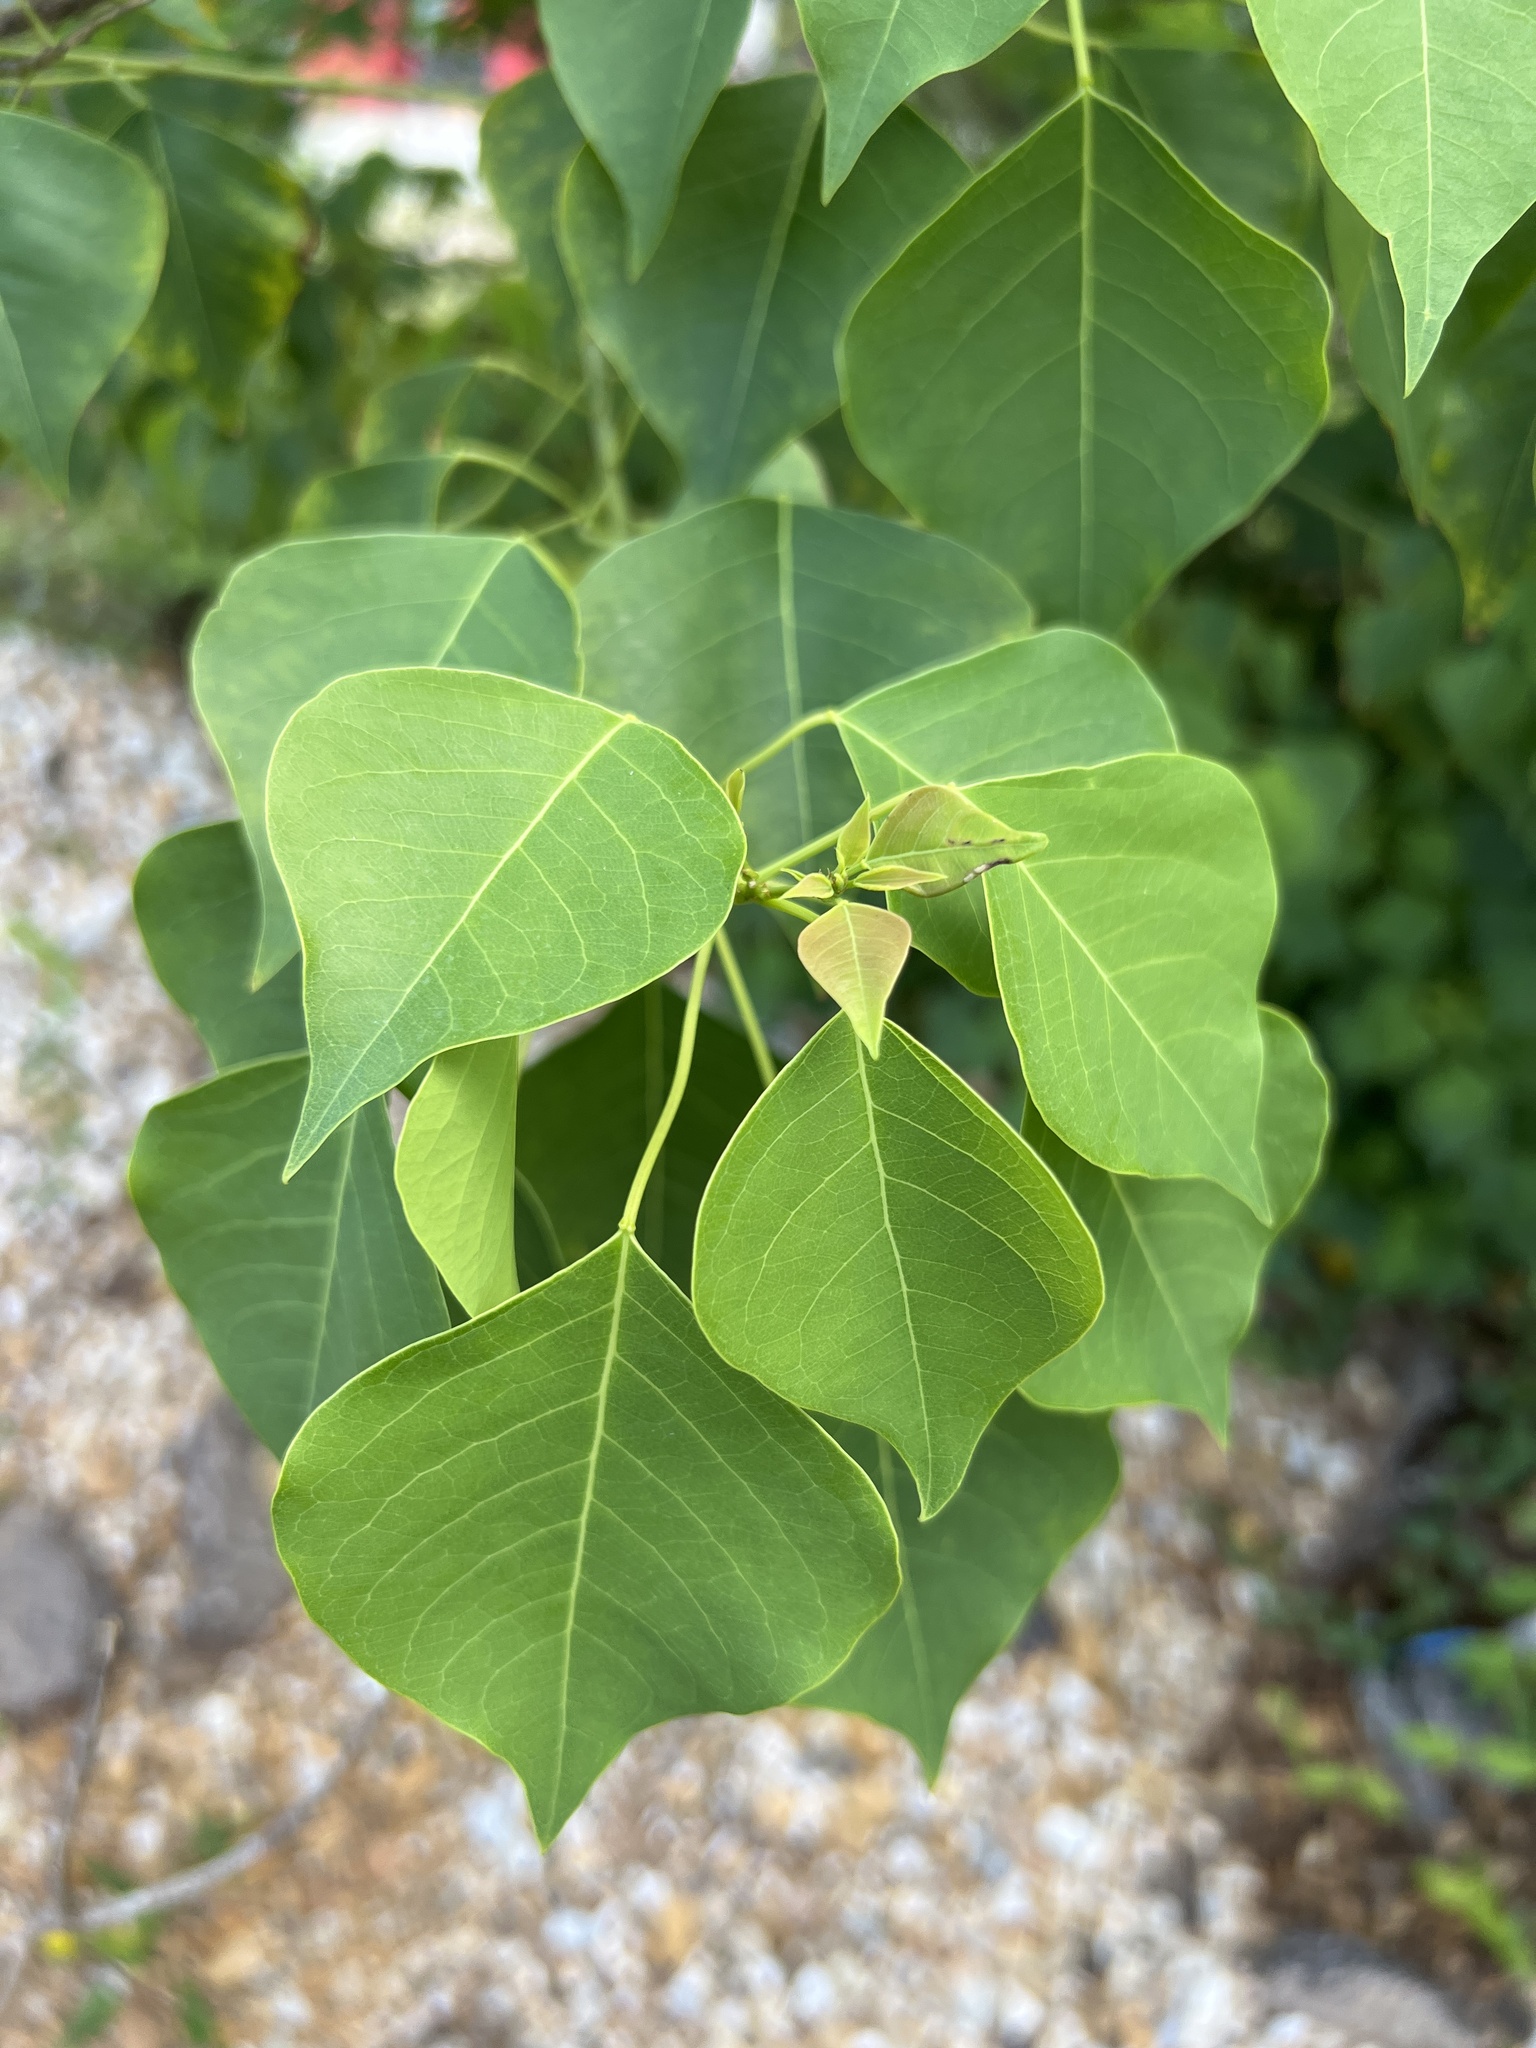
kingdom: Plantae
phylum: Tracheophyta
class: Magnoliopsida
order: Malpighiales
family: Euphorbiaceae
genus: Triadica
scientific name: Triadica sebifera
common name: Chinese tallow
